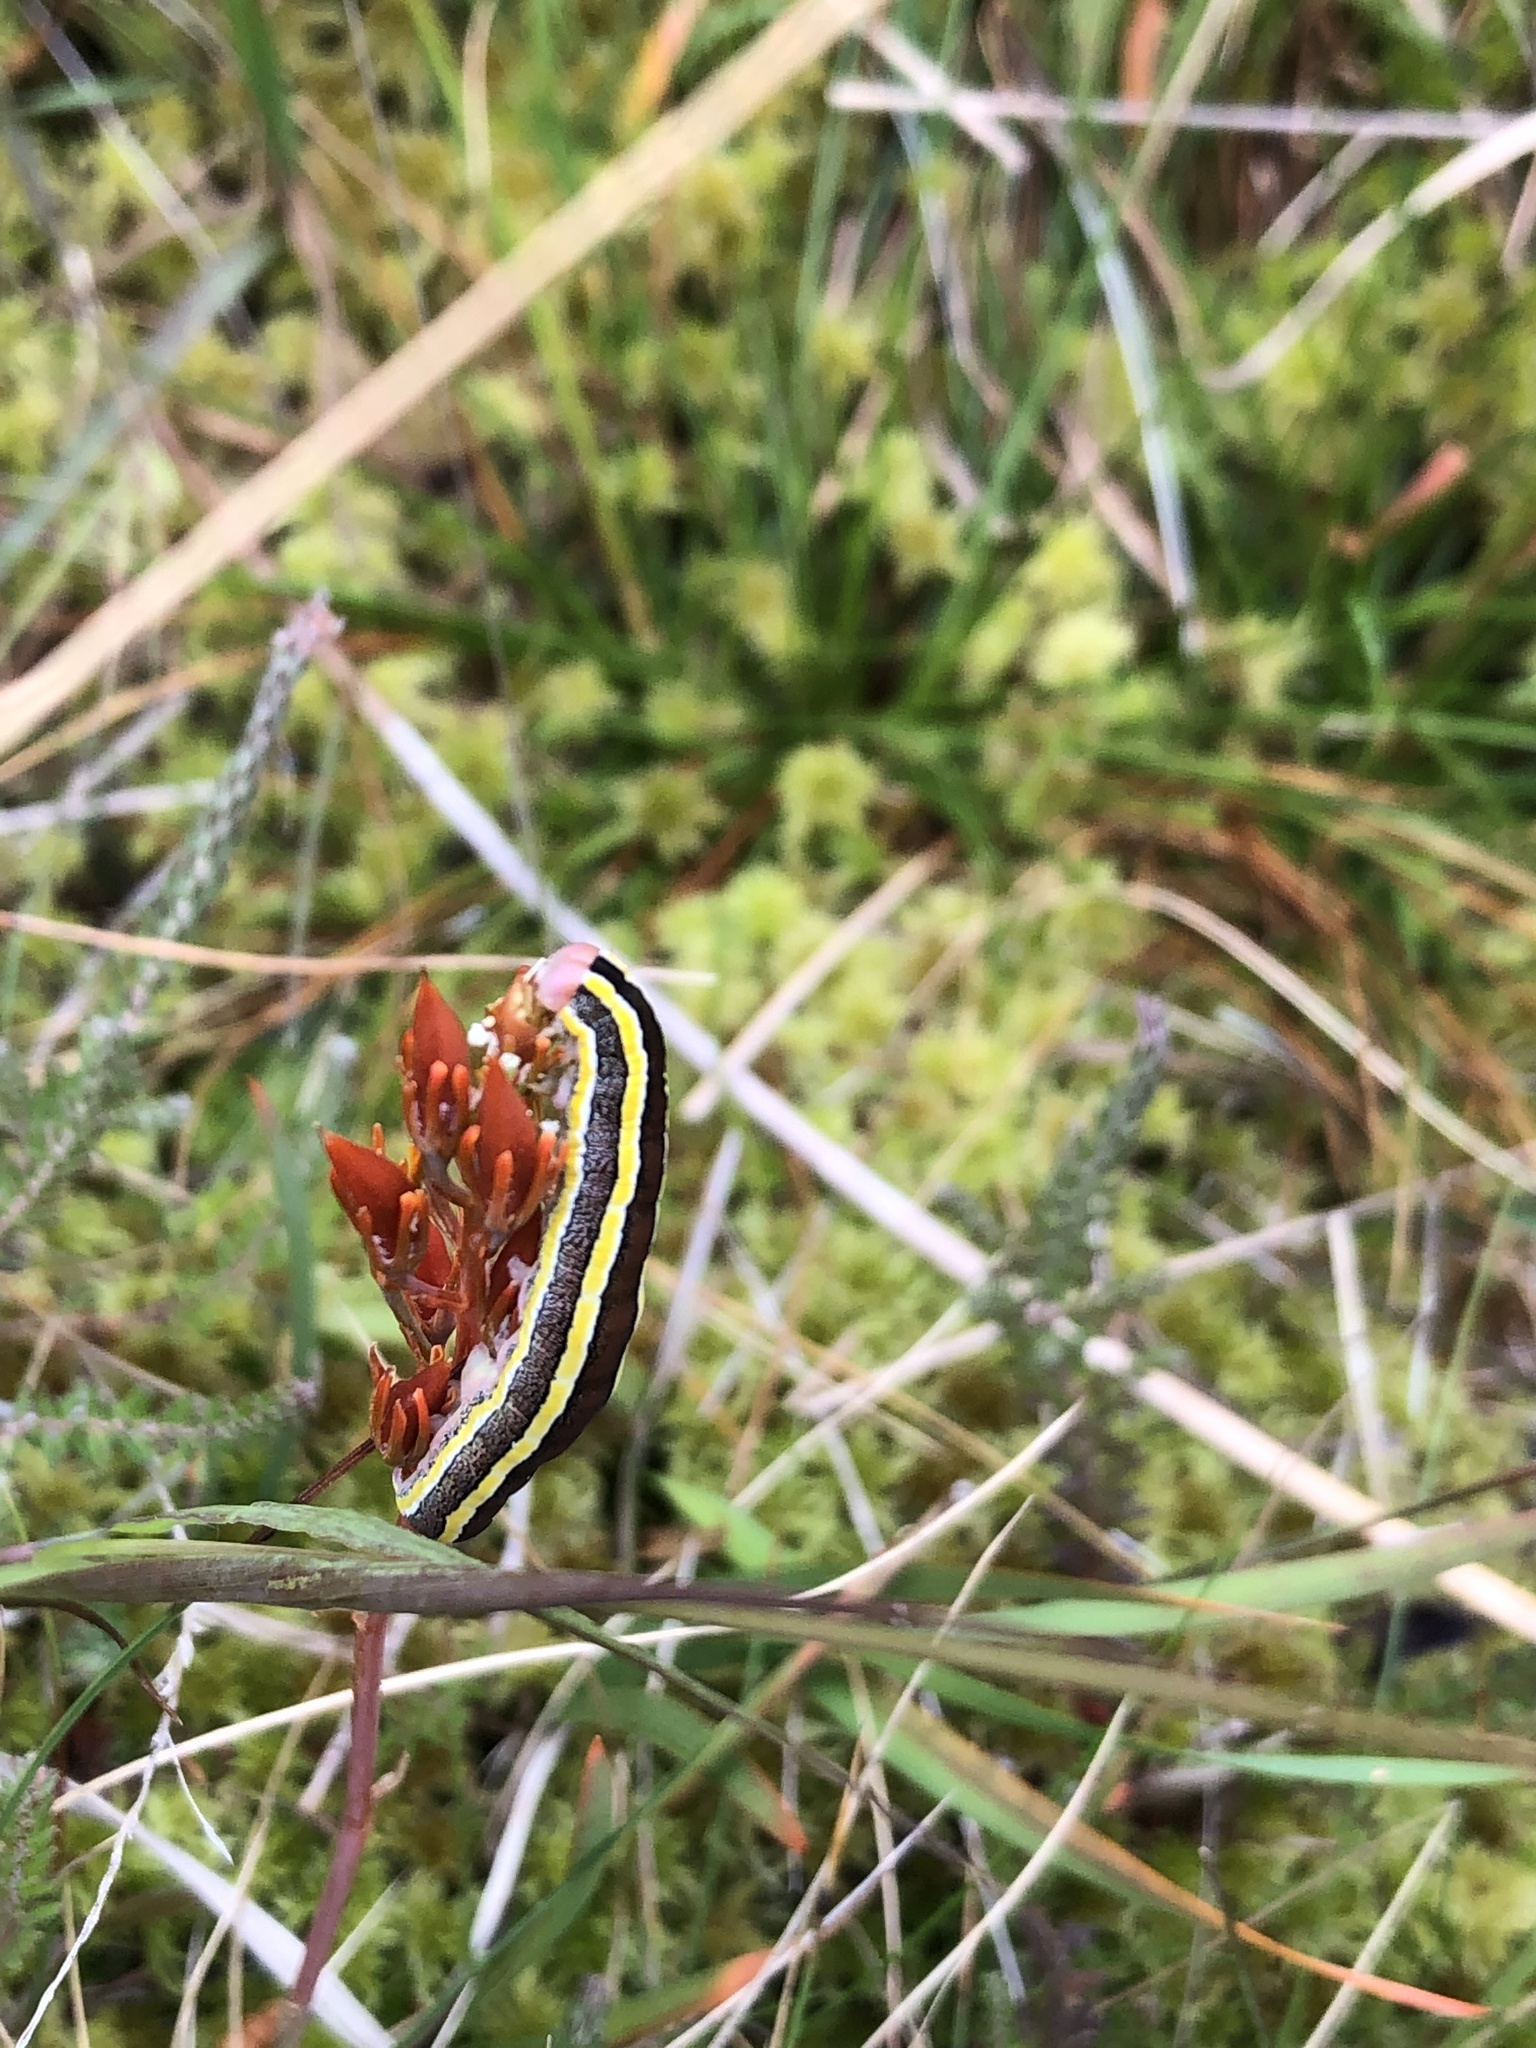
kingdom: Animalia
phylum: Arthropoda
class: Insecta
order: Lepidoptera
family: Noctuidae
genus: Ceramica
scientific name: Ceramica pisi
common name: Broom moth
